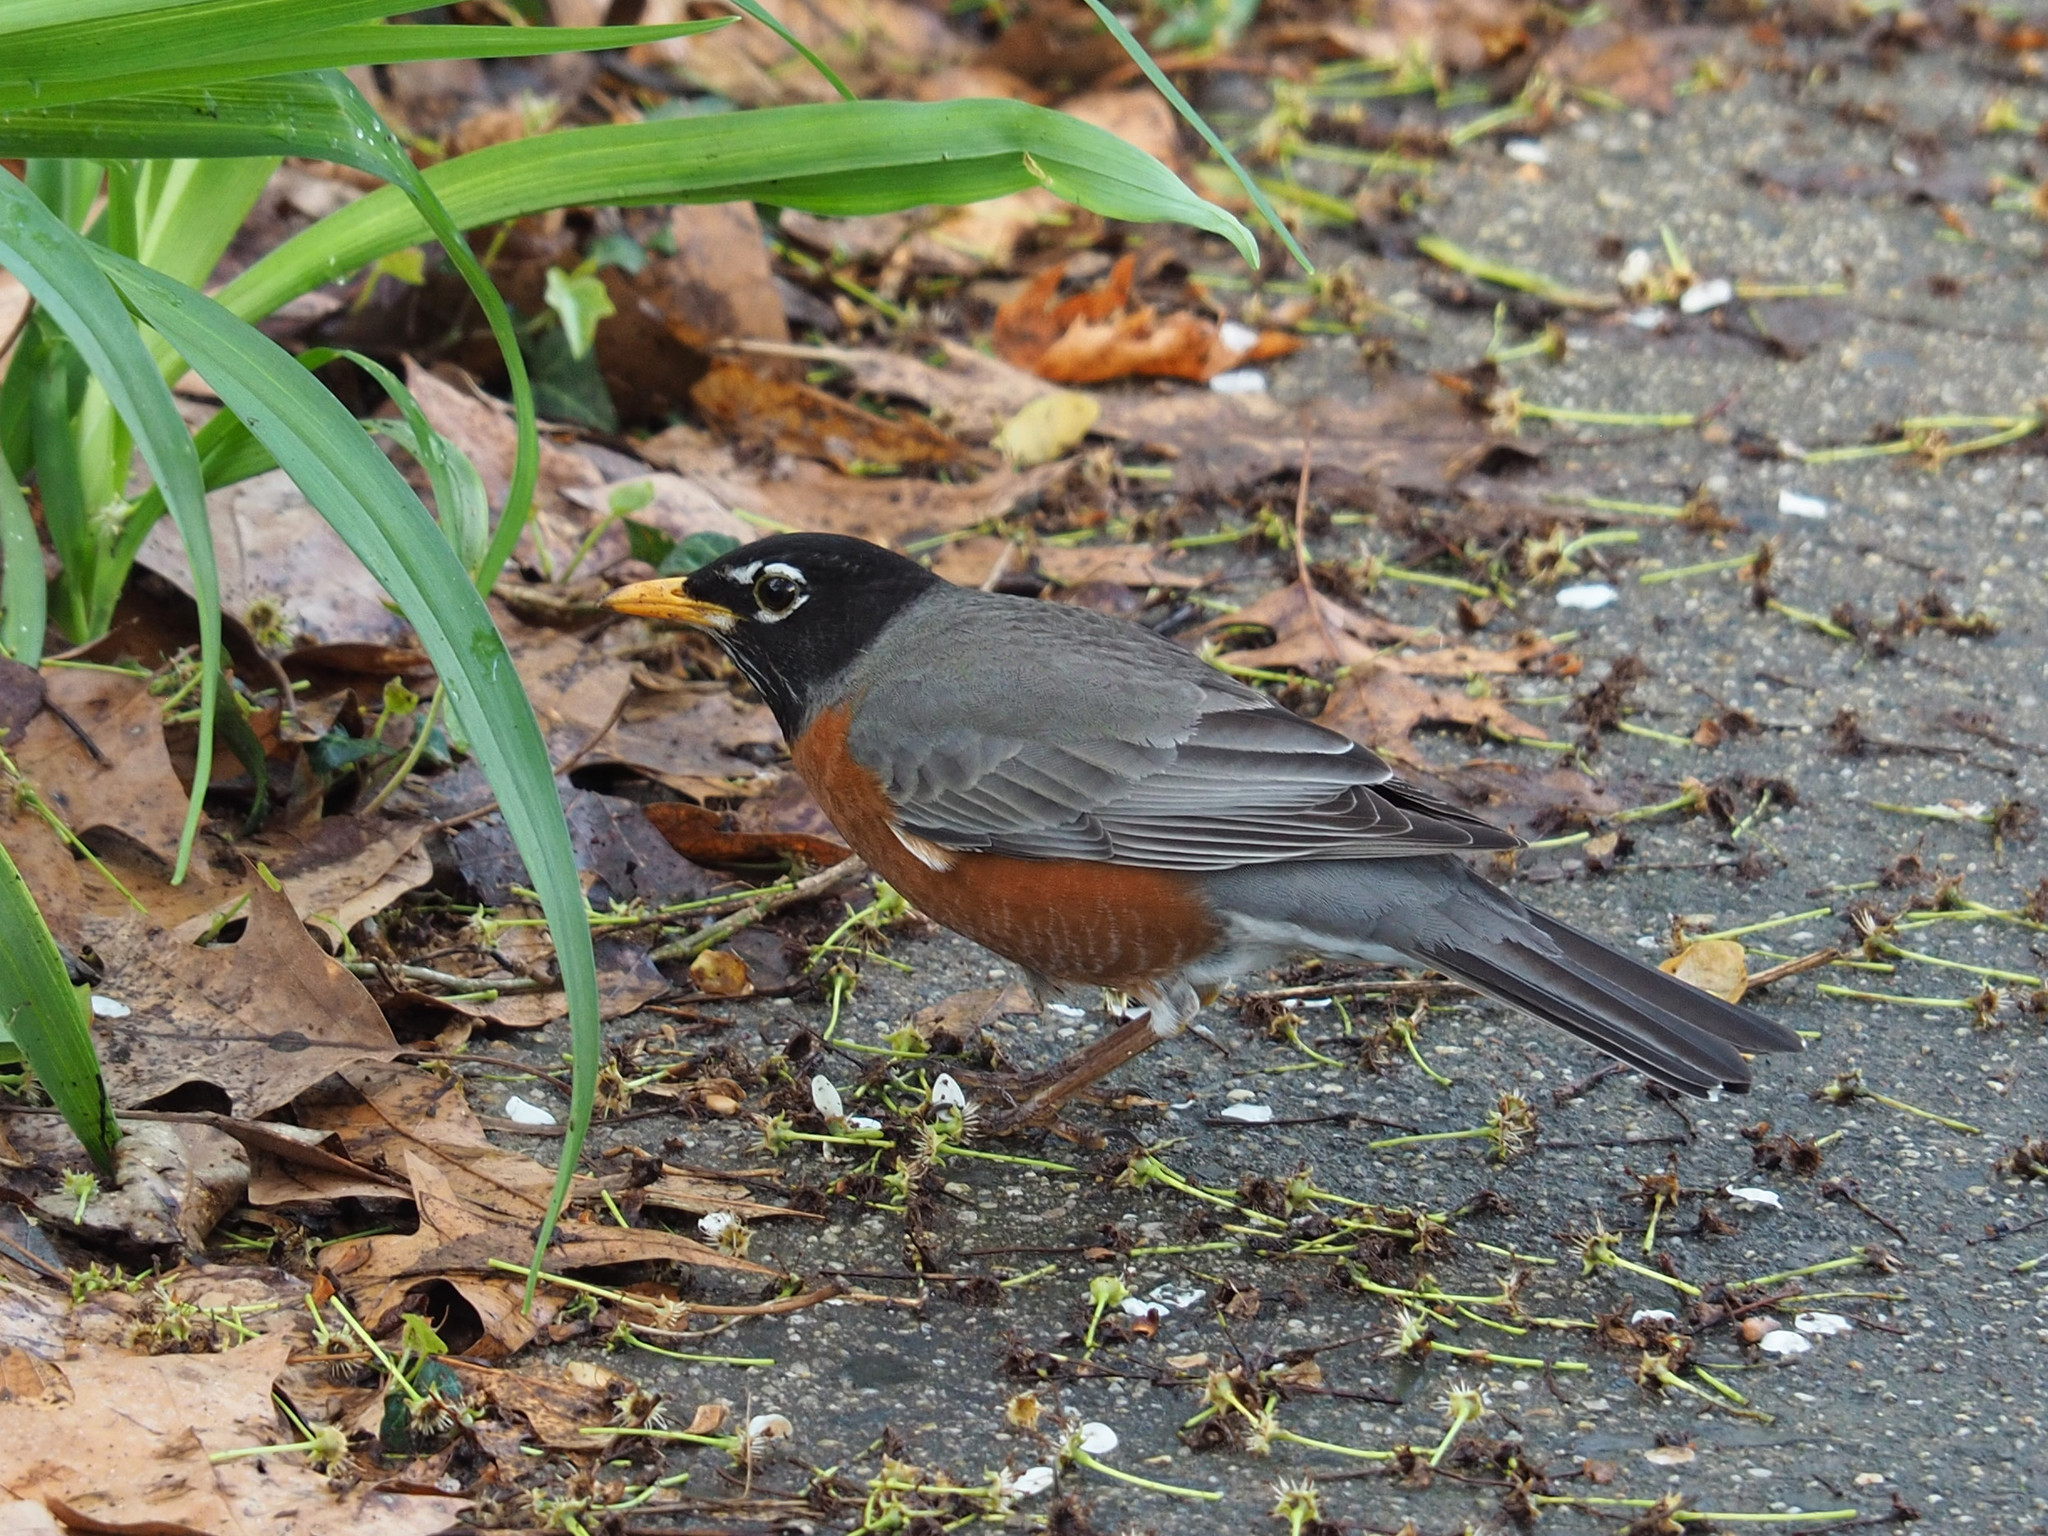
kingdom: Animalia
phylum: Chordata
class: Aves
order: Passeriformes
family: Turdidae
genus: Turdus
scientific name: Turdus migratorius
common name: American robin
